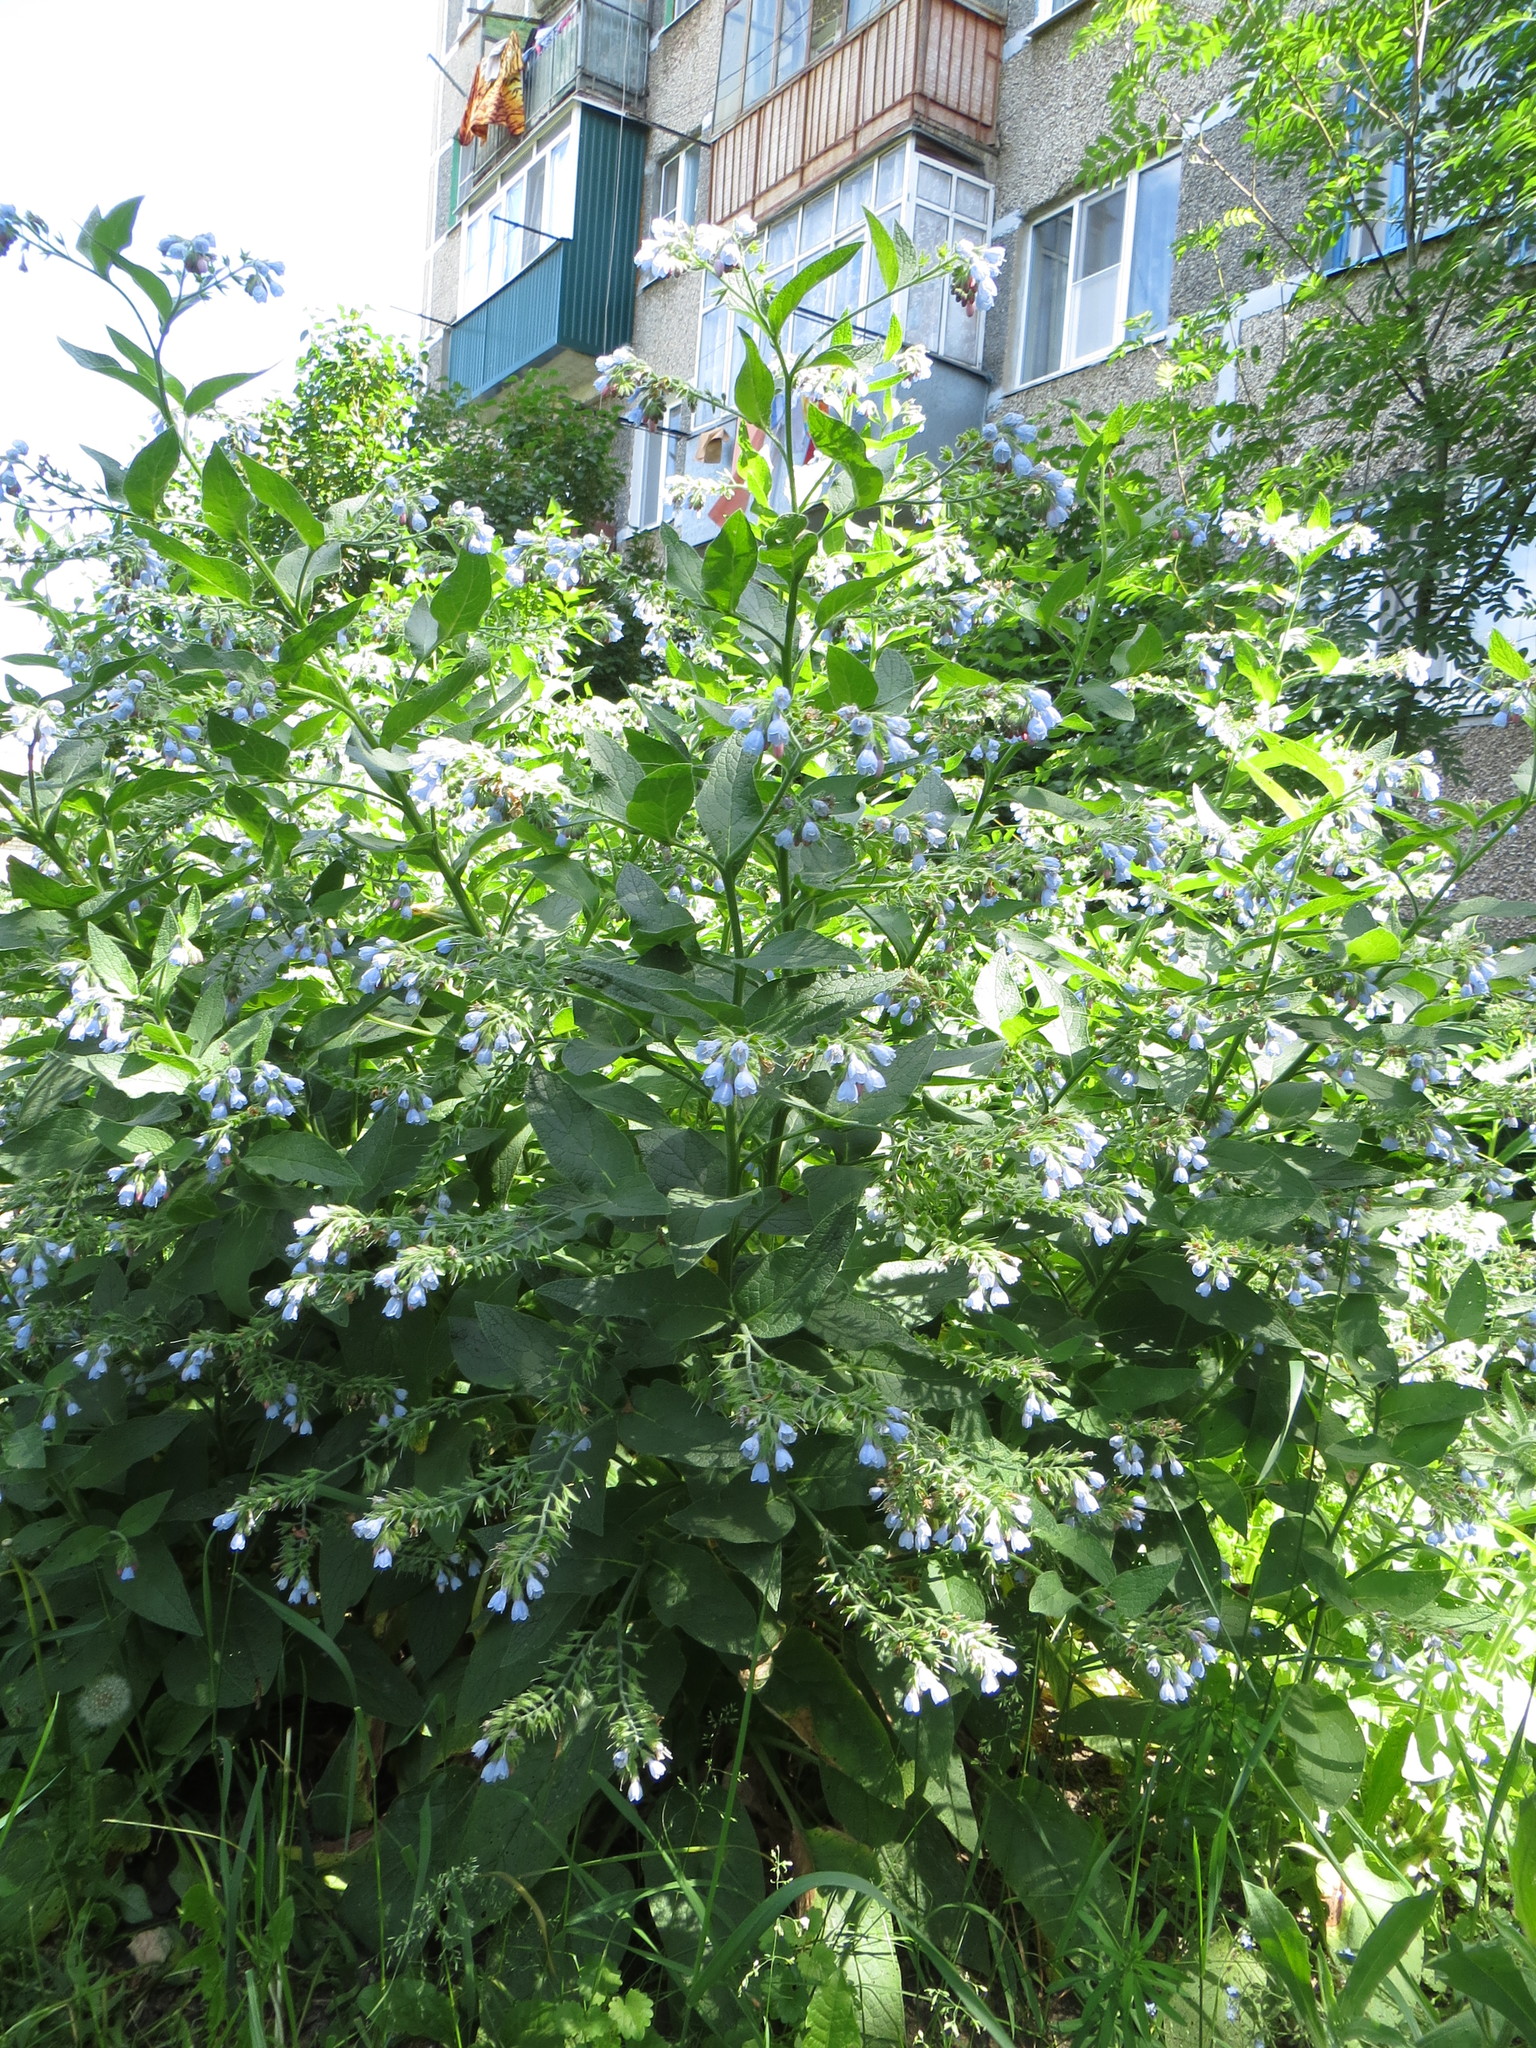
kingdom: Plantae
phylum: Tracheophyta
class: Magnoliopsida
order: Boraginales
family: Boraginaceae
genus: Symphytum
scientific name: Symphytum caucasicum
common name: Caucasian comfrey
